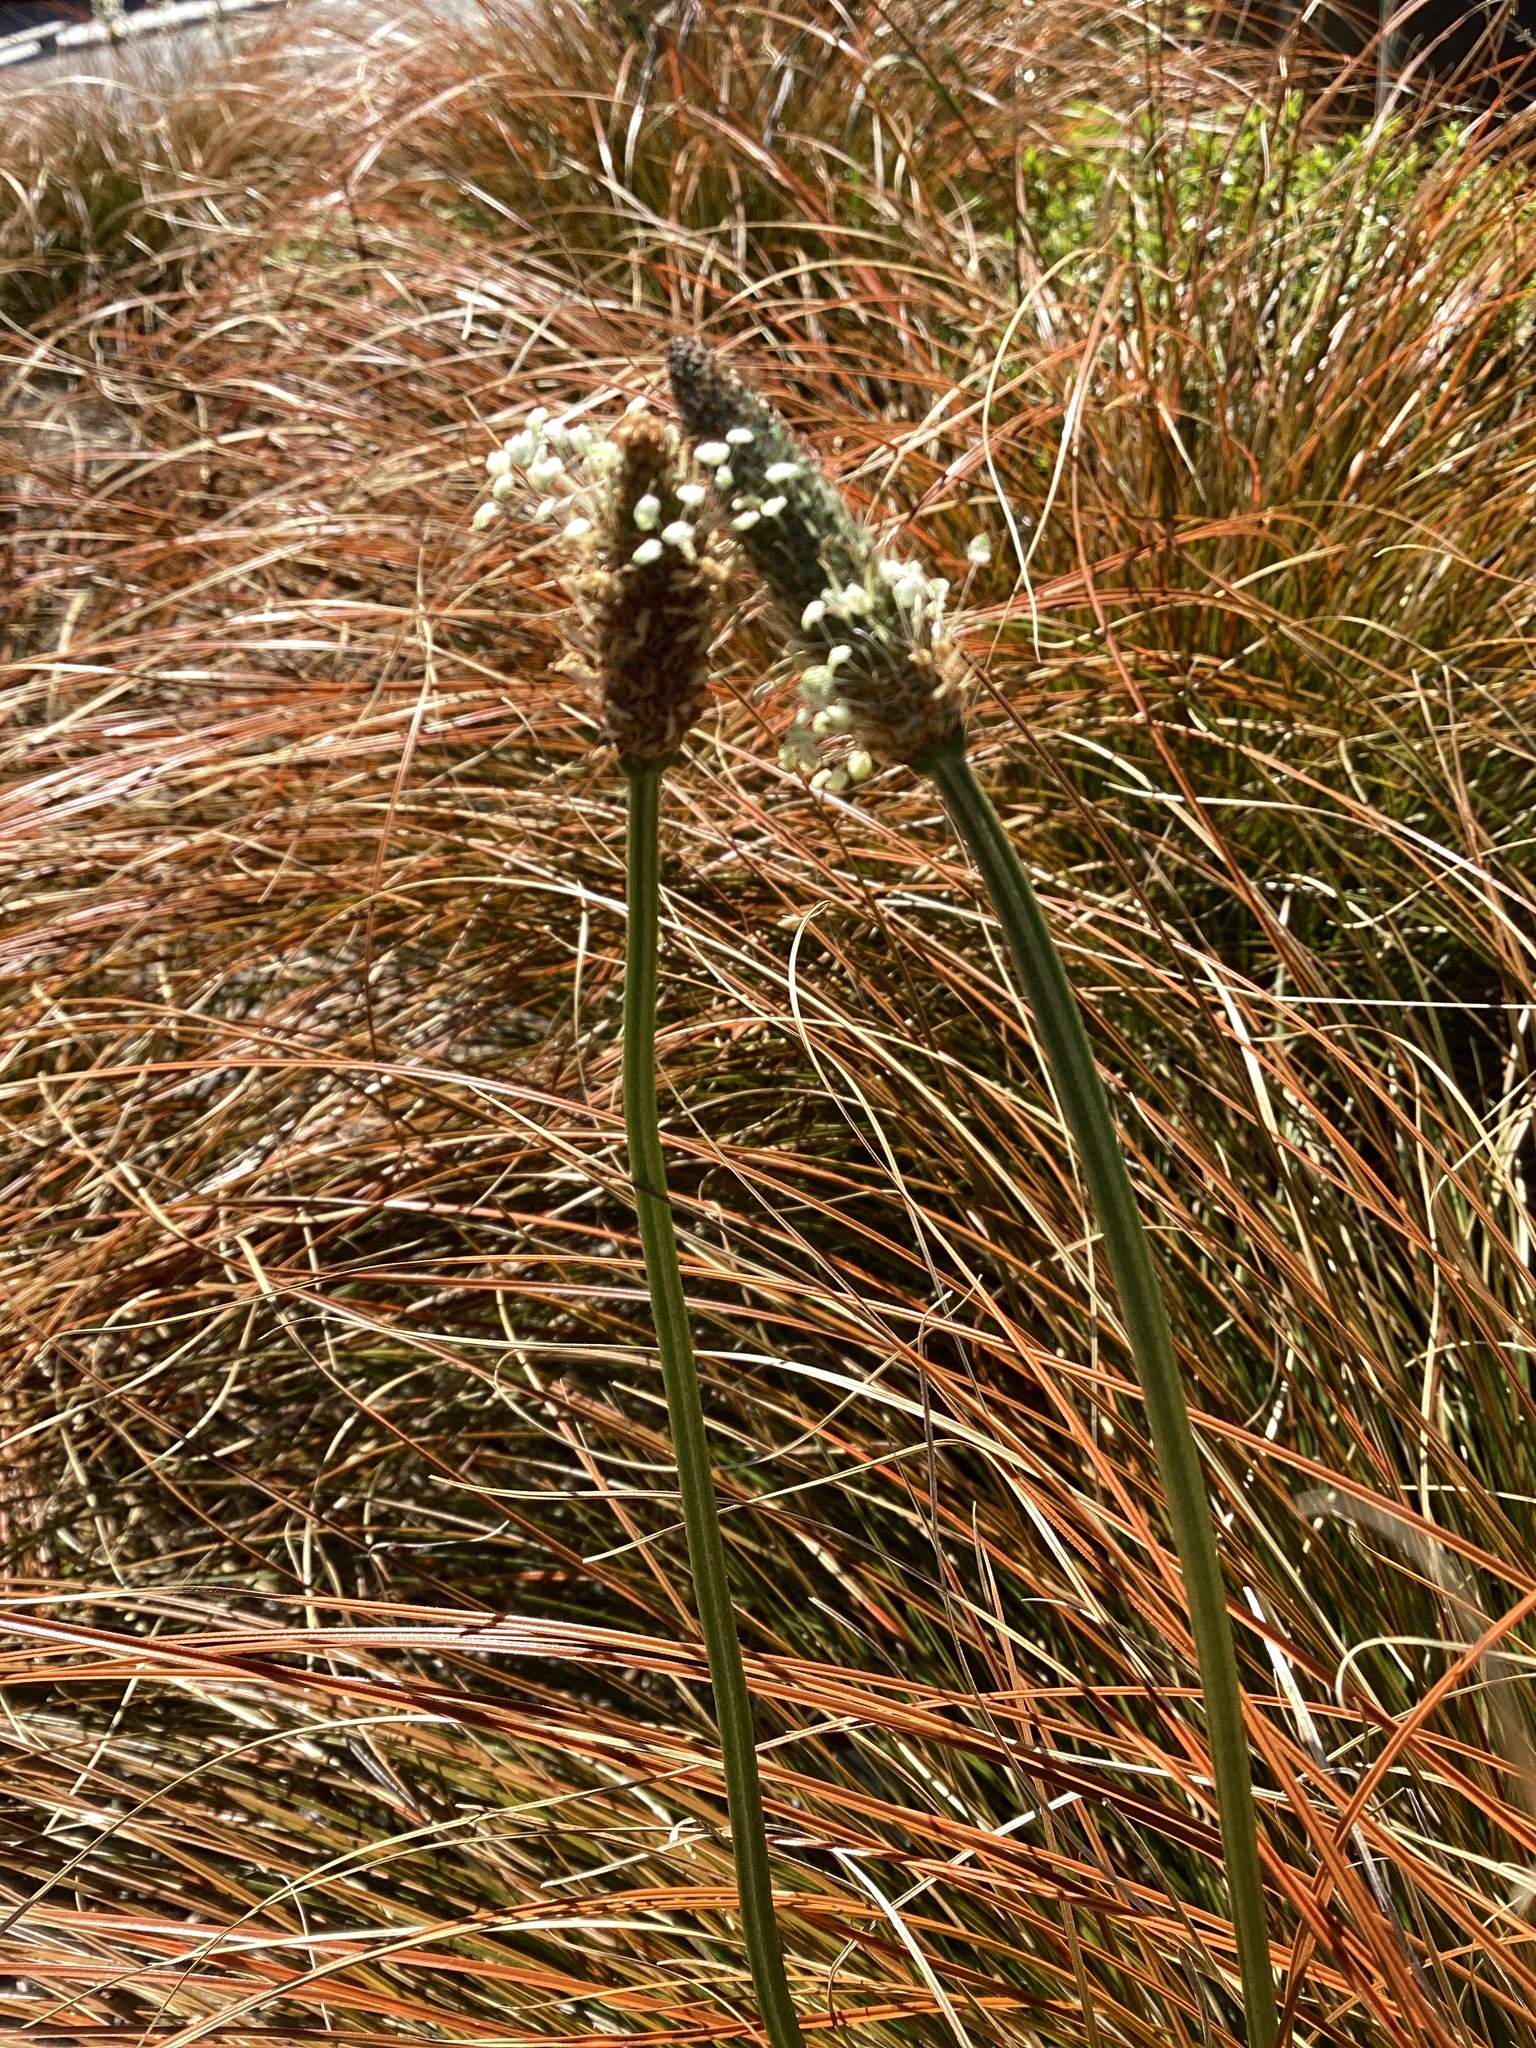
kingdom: Plantae
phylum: Tracheophyta
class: Magnoliopsida
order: Lamiales
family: Plantaginaceae
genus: Plantago
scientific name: Plantago lanceolata
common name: Ribwort plantain
